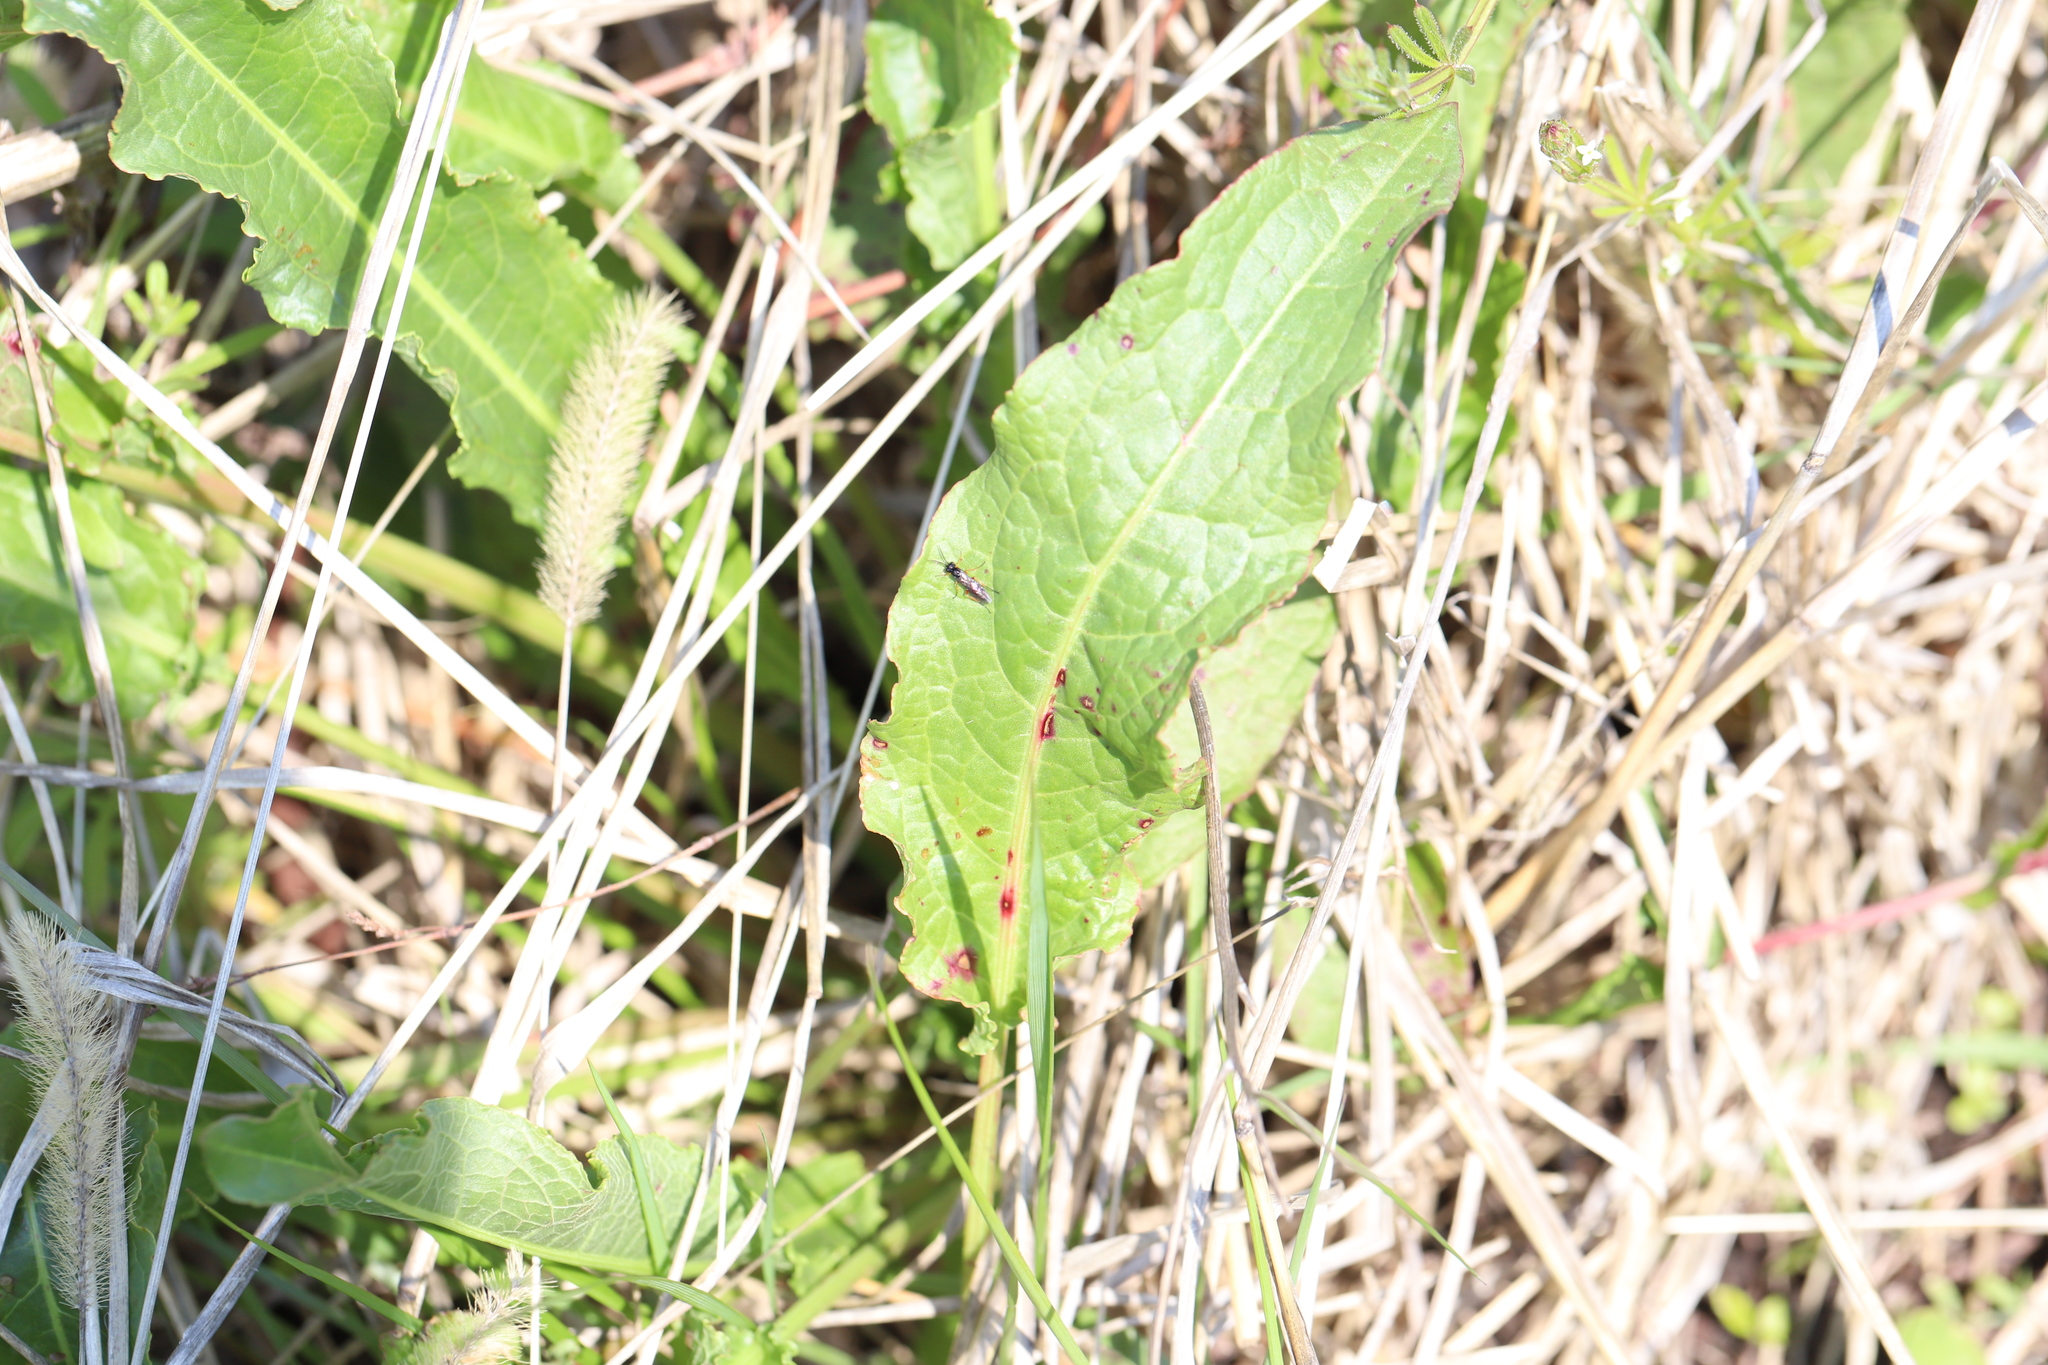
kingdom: Plantae
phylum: Tracheophyta
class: Magnoliopsida
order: Caryophyllales
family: Polygonaceae
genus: Rumex
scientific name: Rumex crispus
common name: Curled dock
